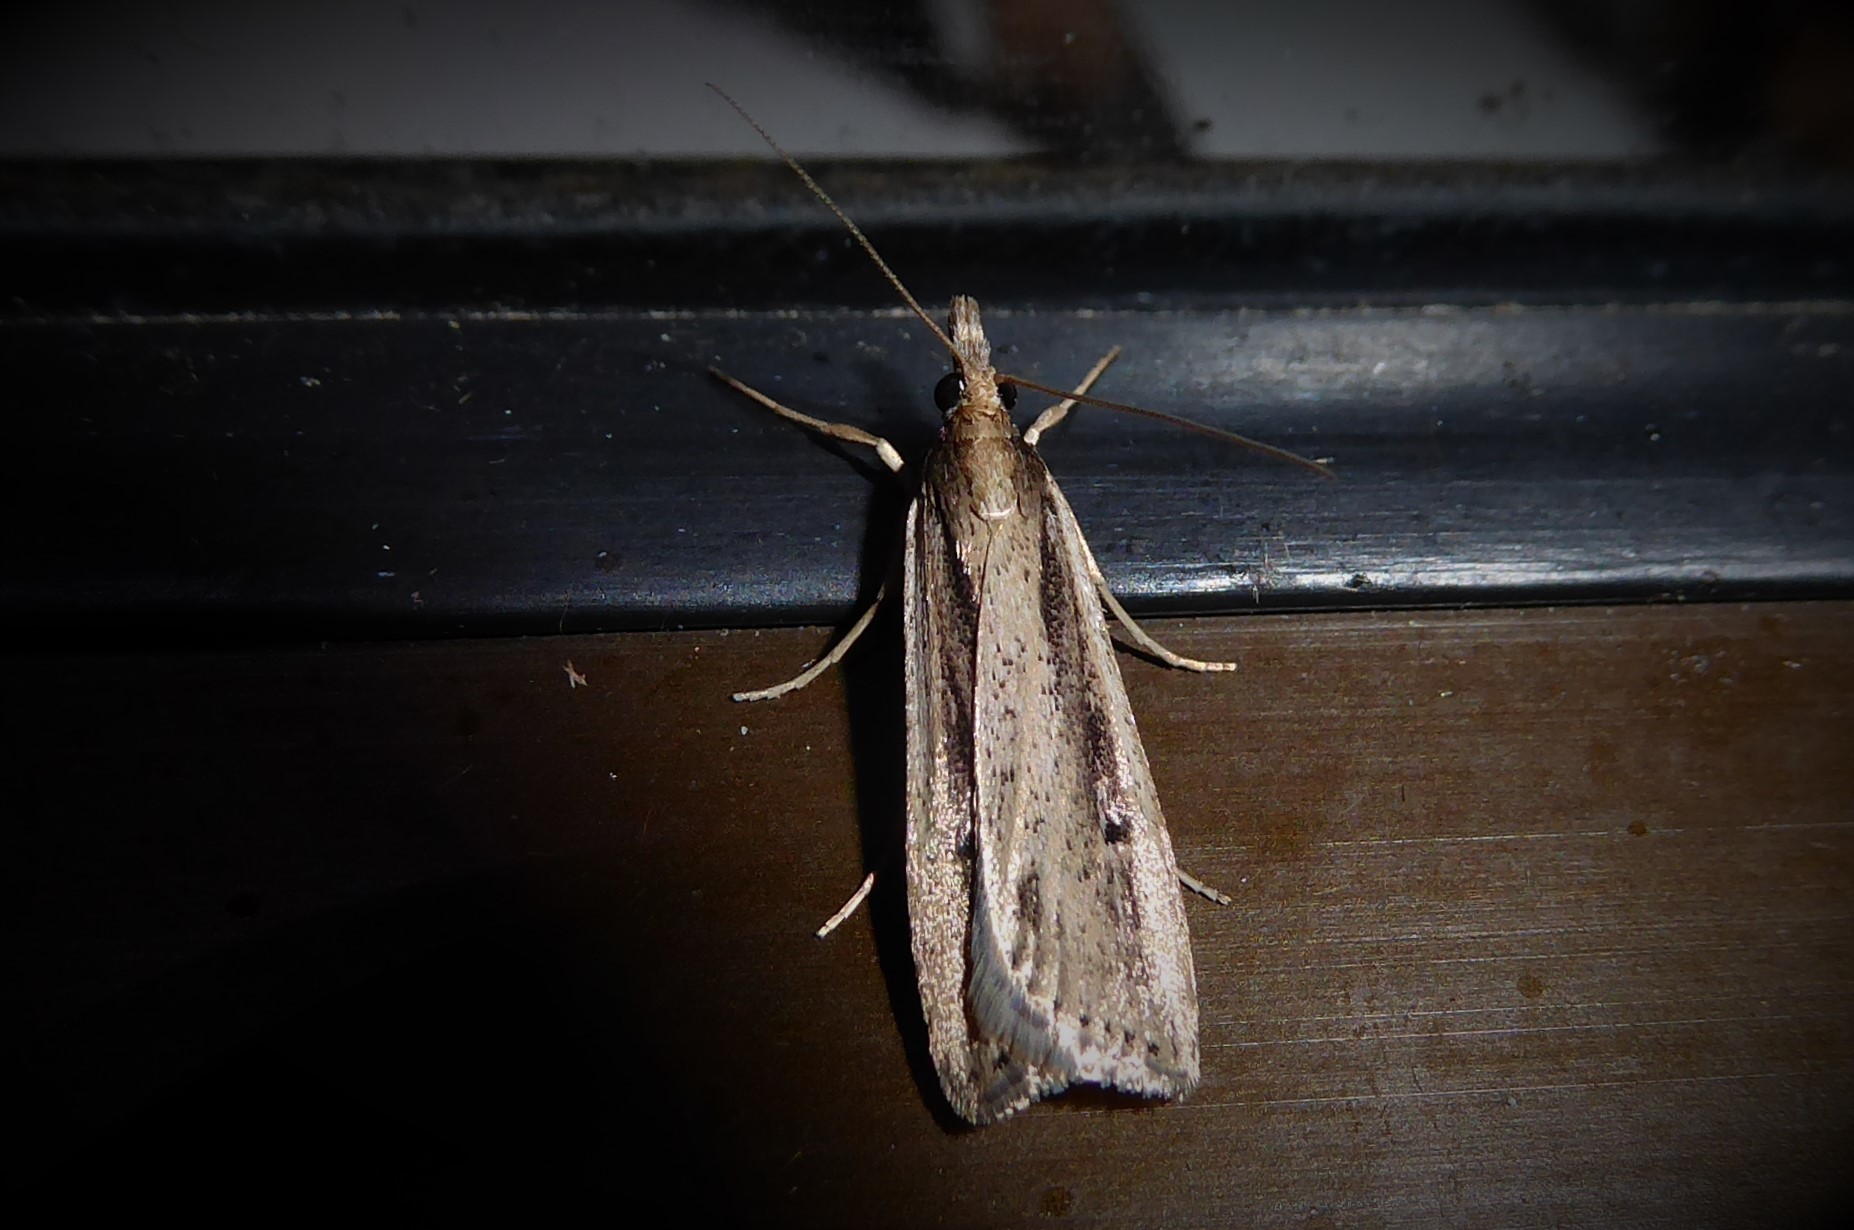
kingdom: Animalia
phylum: Arthropoda
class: Insecta
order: Lepidoptera
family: Crambidae
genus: Eudonia
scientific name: Eudonia sabulosella
